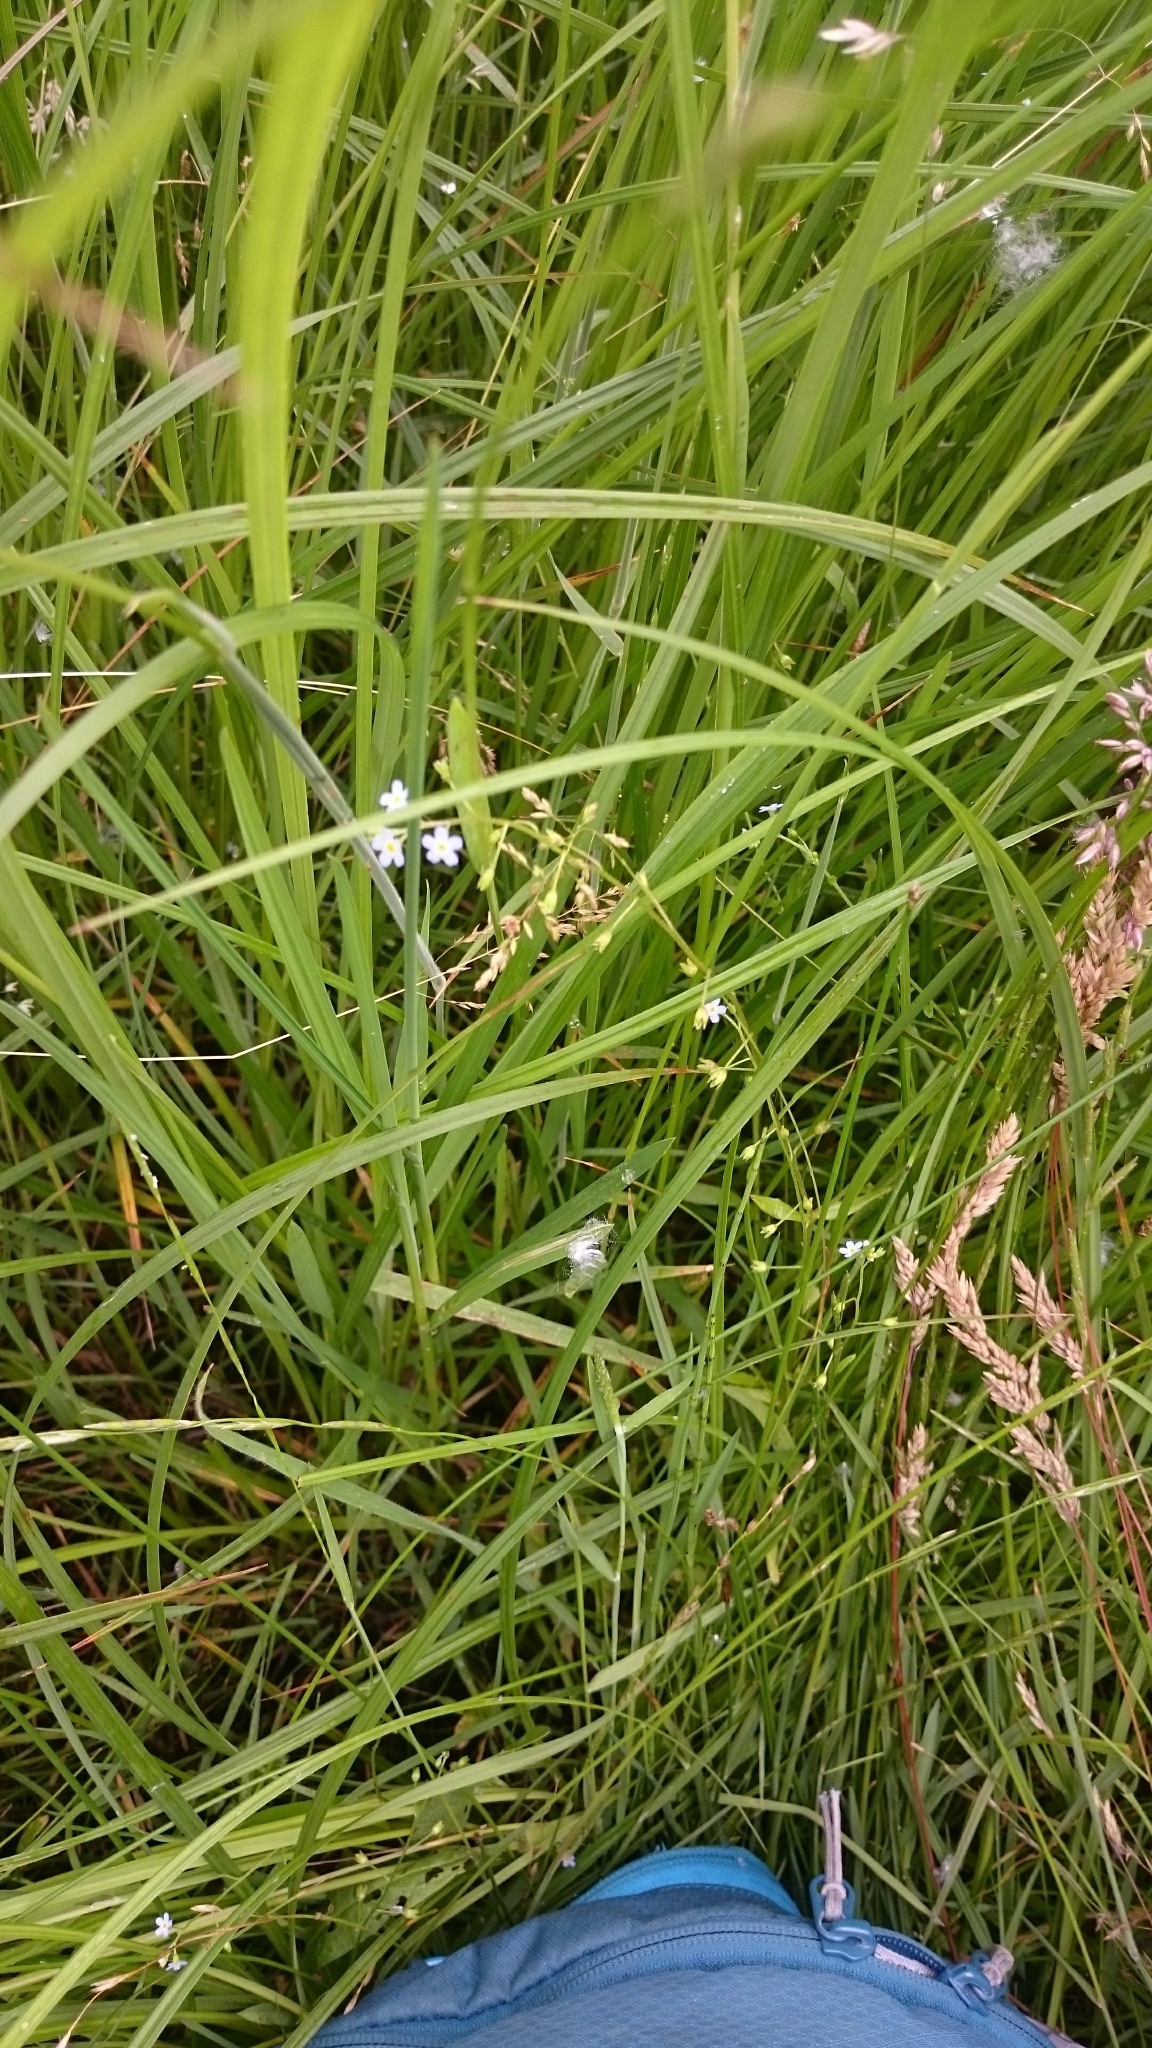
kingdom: Plantae
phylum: Tracheophyta
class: Magnoliopsida
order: Boraginales
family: Boraginaceae
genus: Myosotis
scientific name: Myosotis laxa
